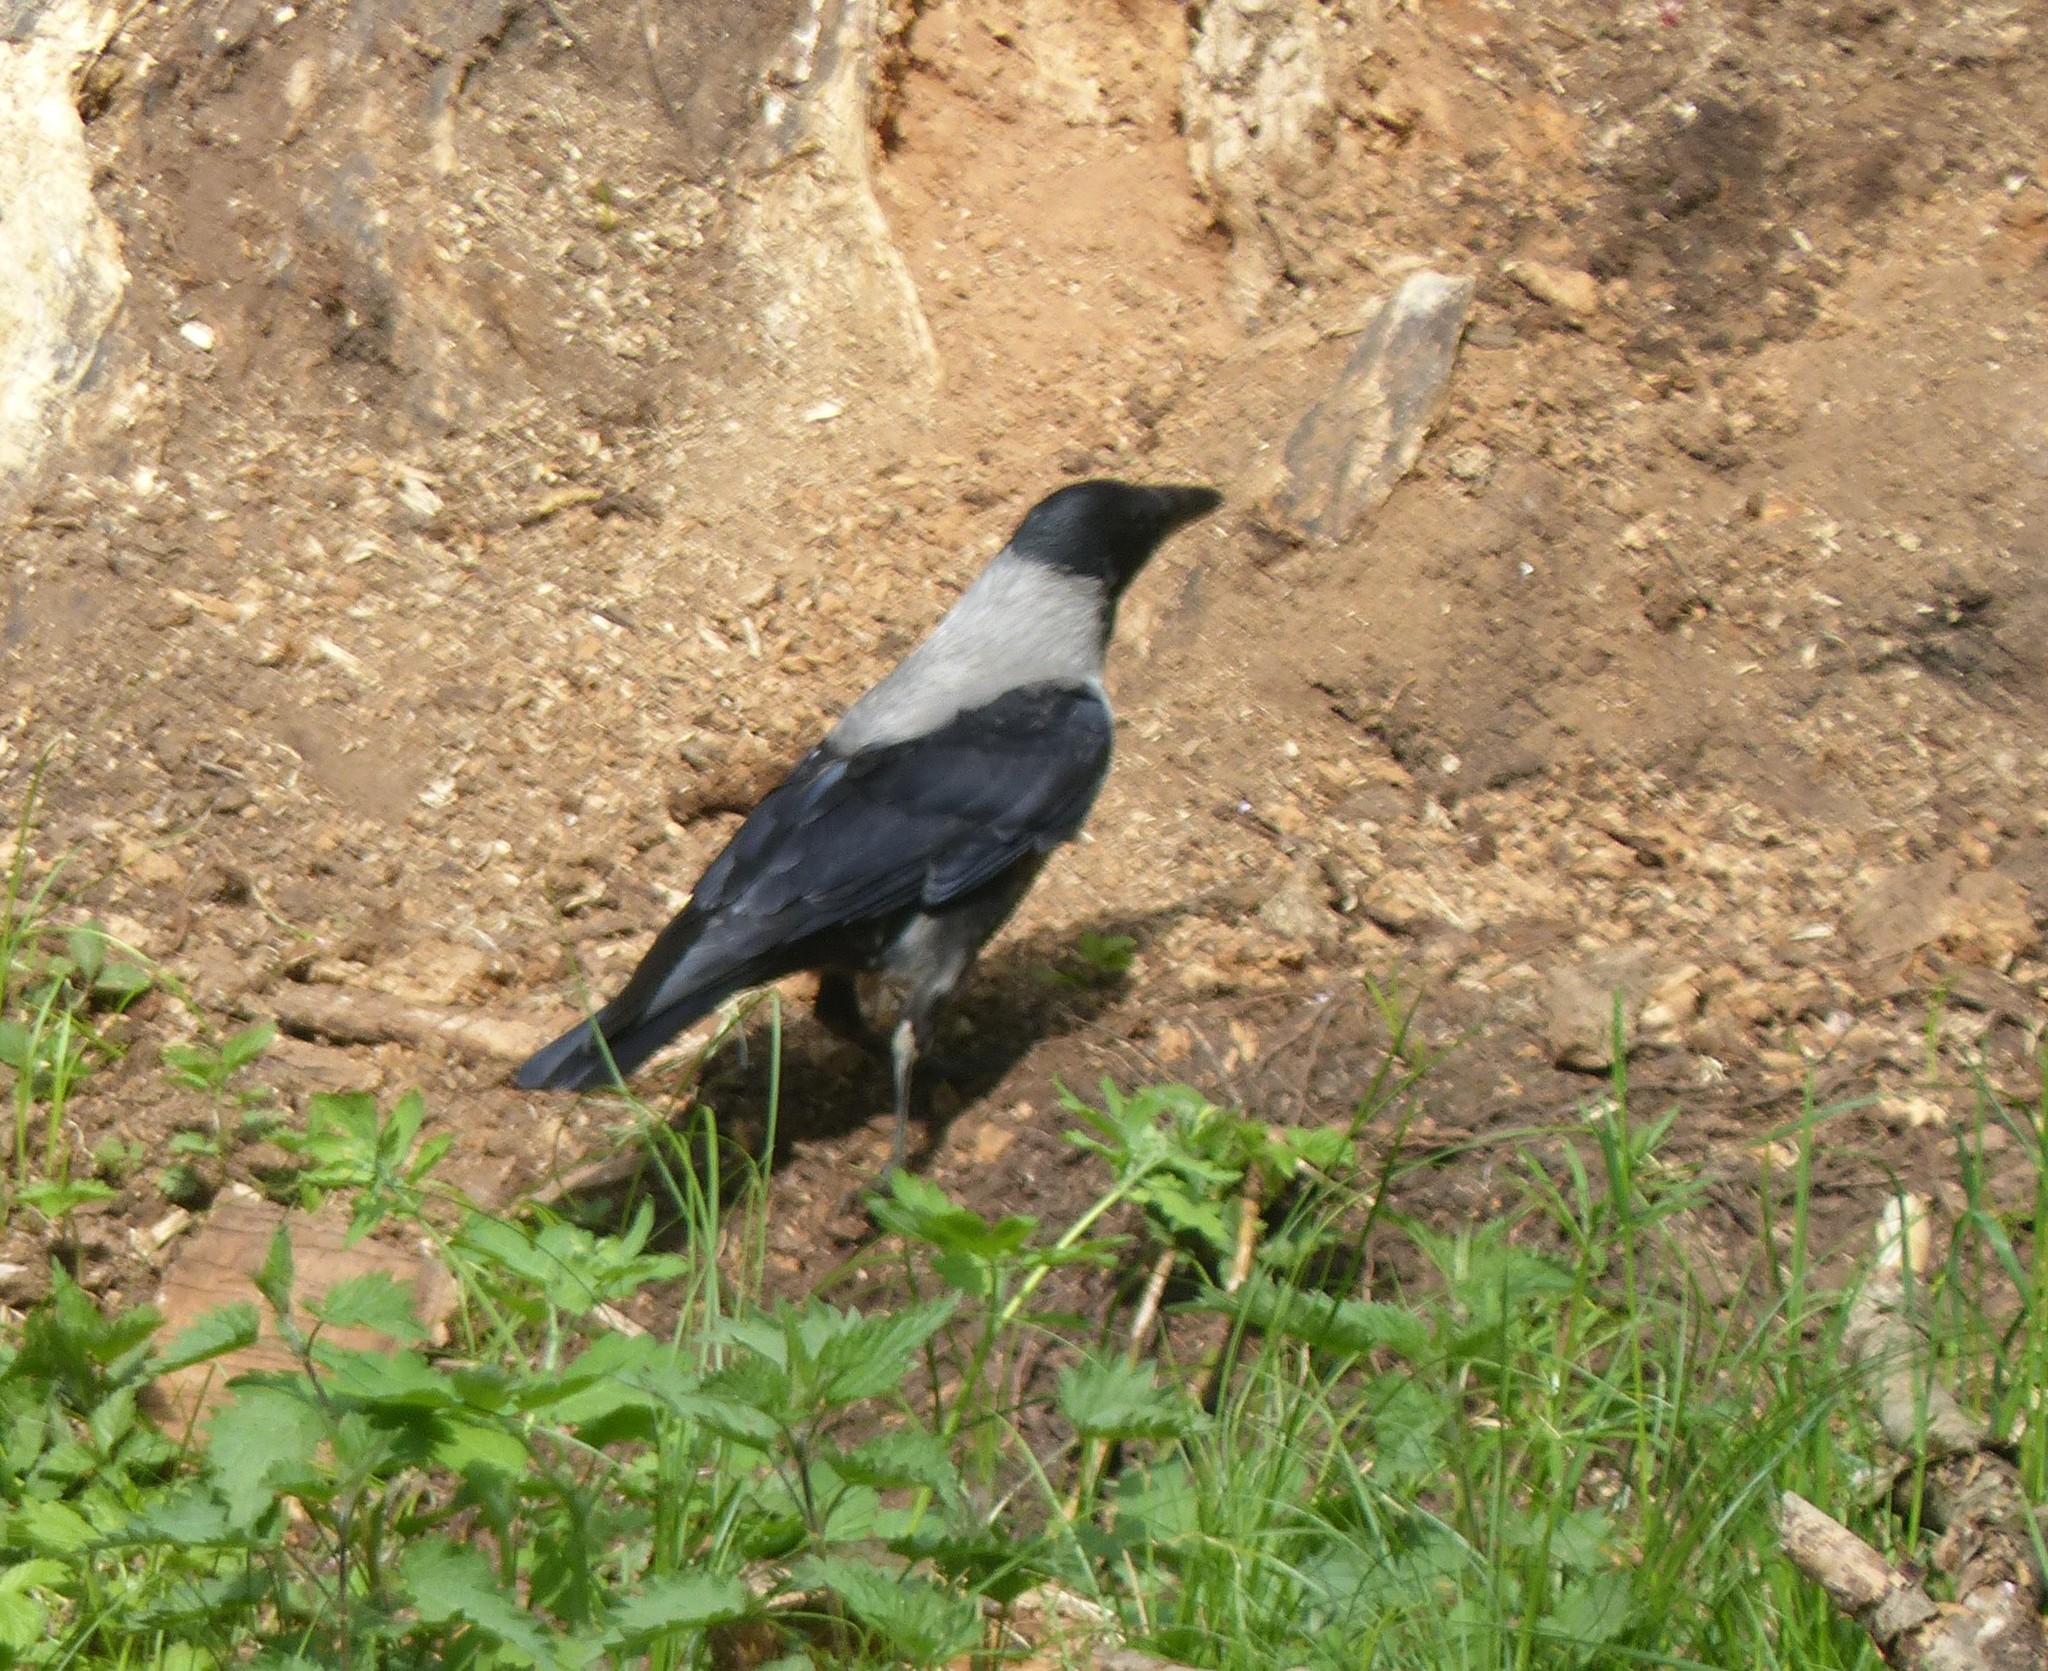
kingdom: Animalia
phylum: Chordata
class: Aves
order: Passeriformes
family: Corvidae
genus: Corvus
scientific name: Corvus cornix
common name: Hooded crow
